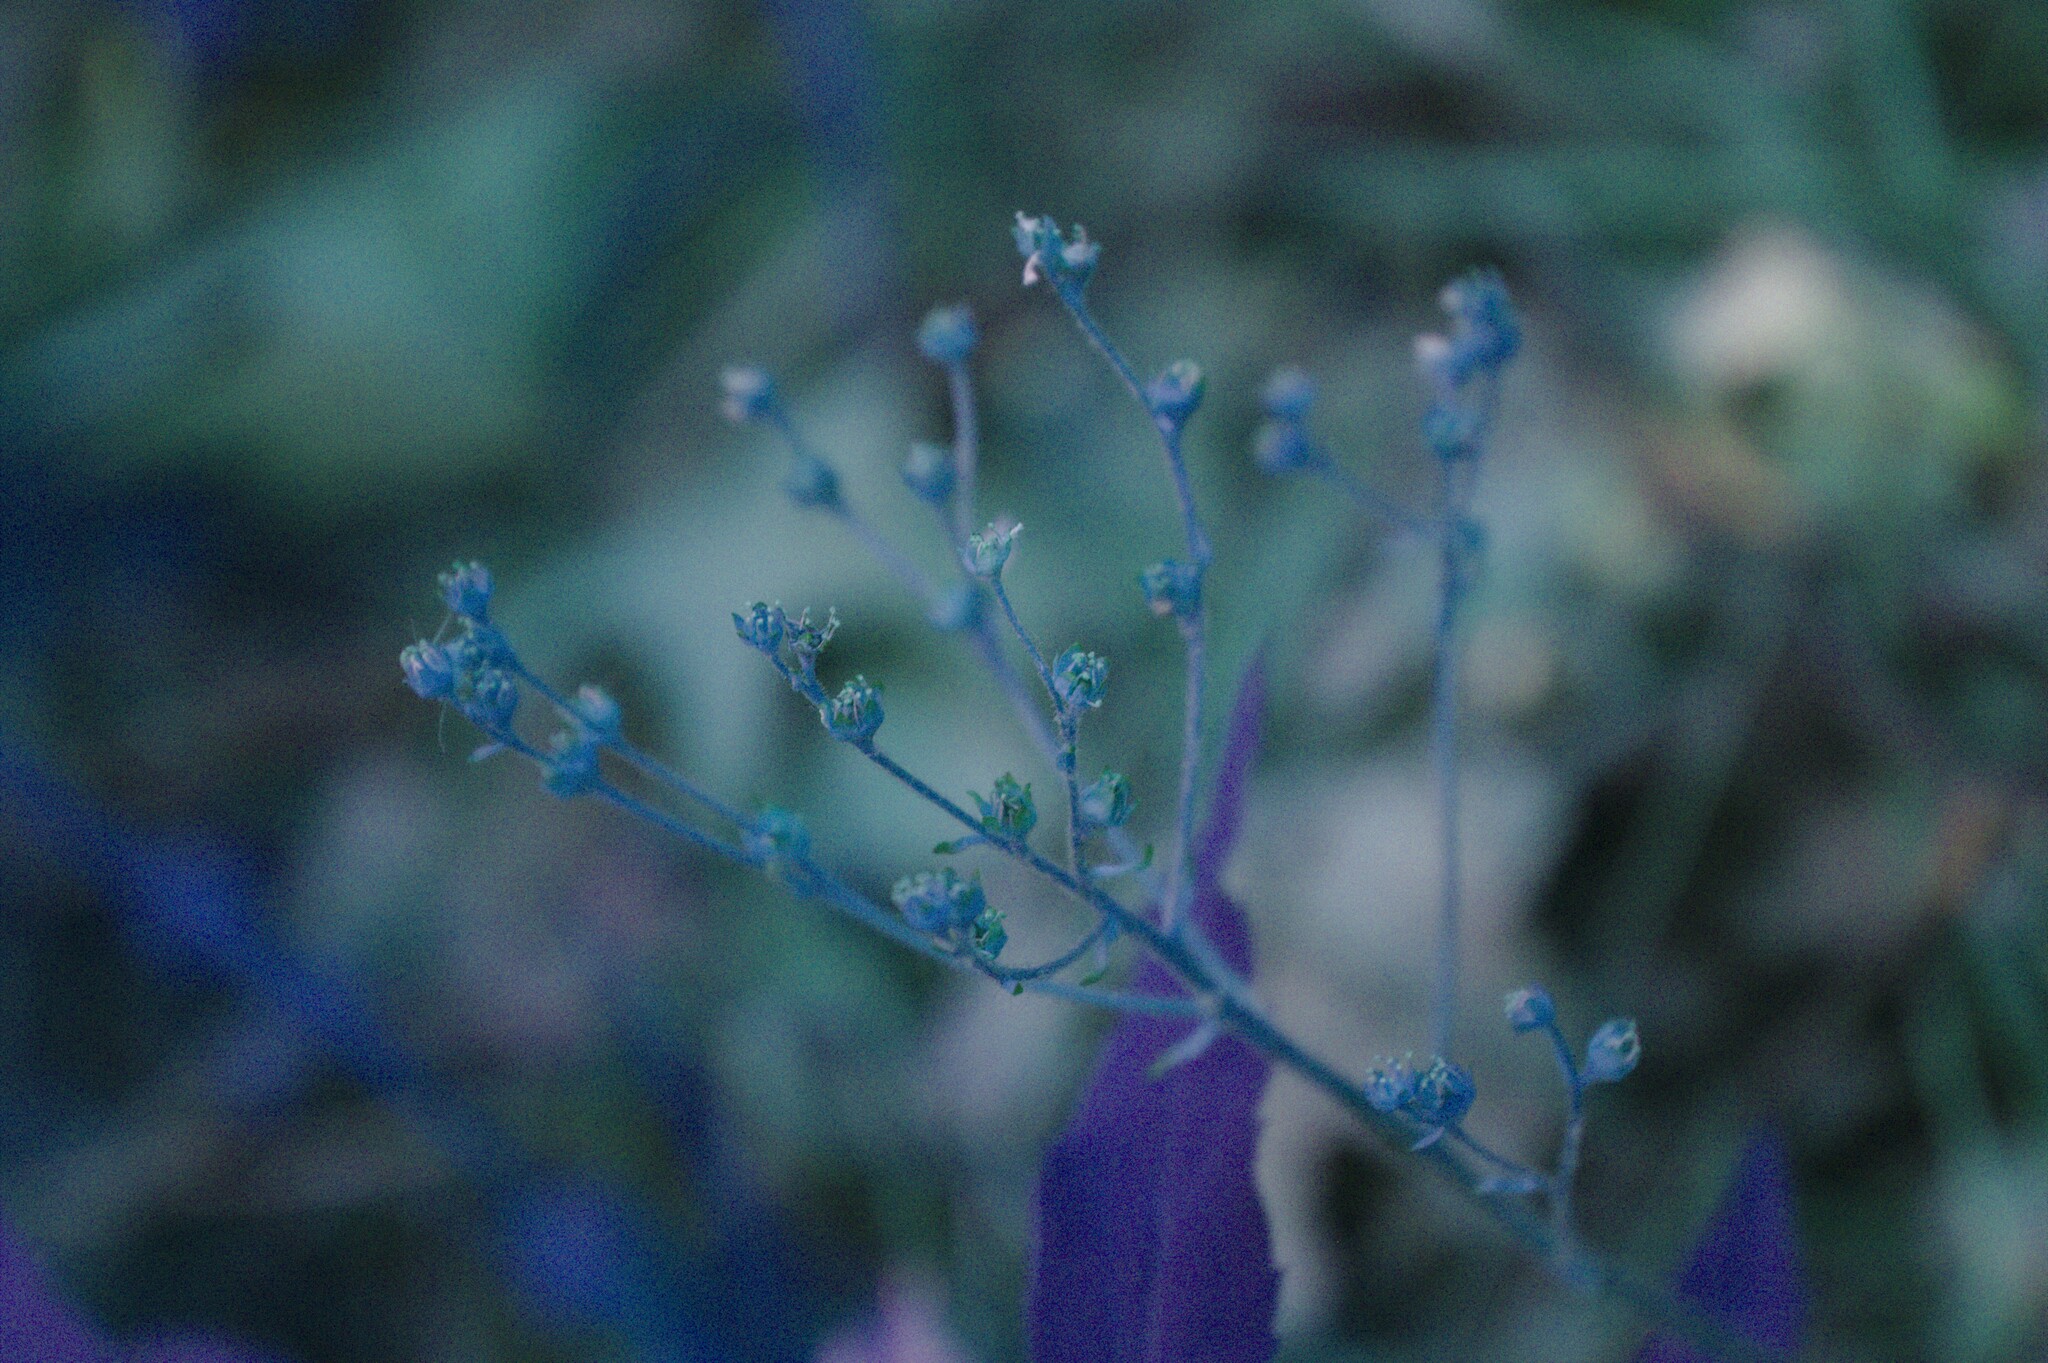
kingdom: Plantae
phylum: Tracheophyta
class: Magnoliopsida
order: Saxifragales
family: Saxifragaceae
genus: Micranthes
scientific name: Micranthes virginiensis
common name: Early saxifrage
